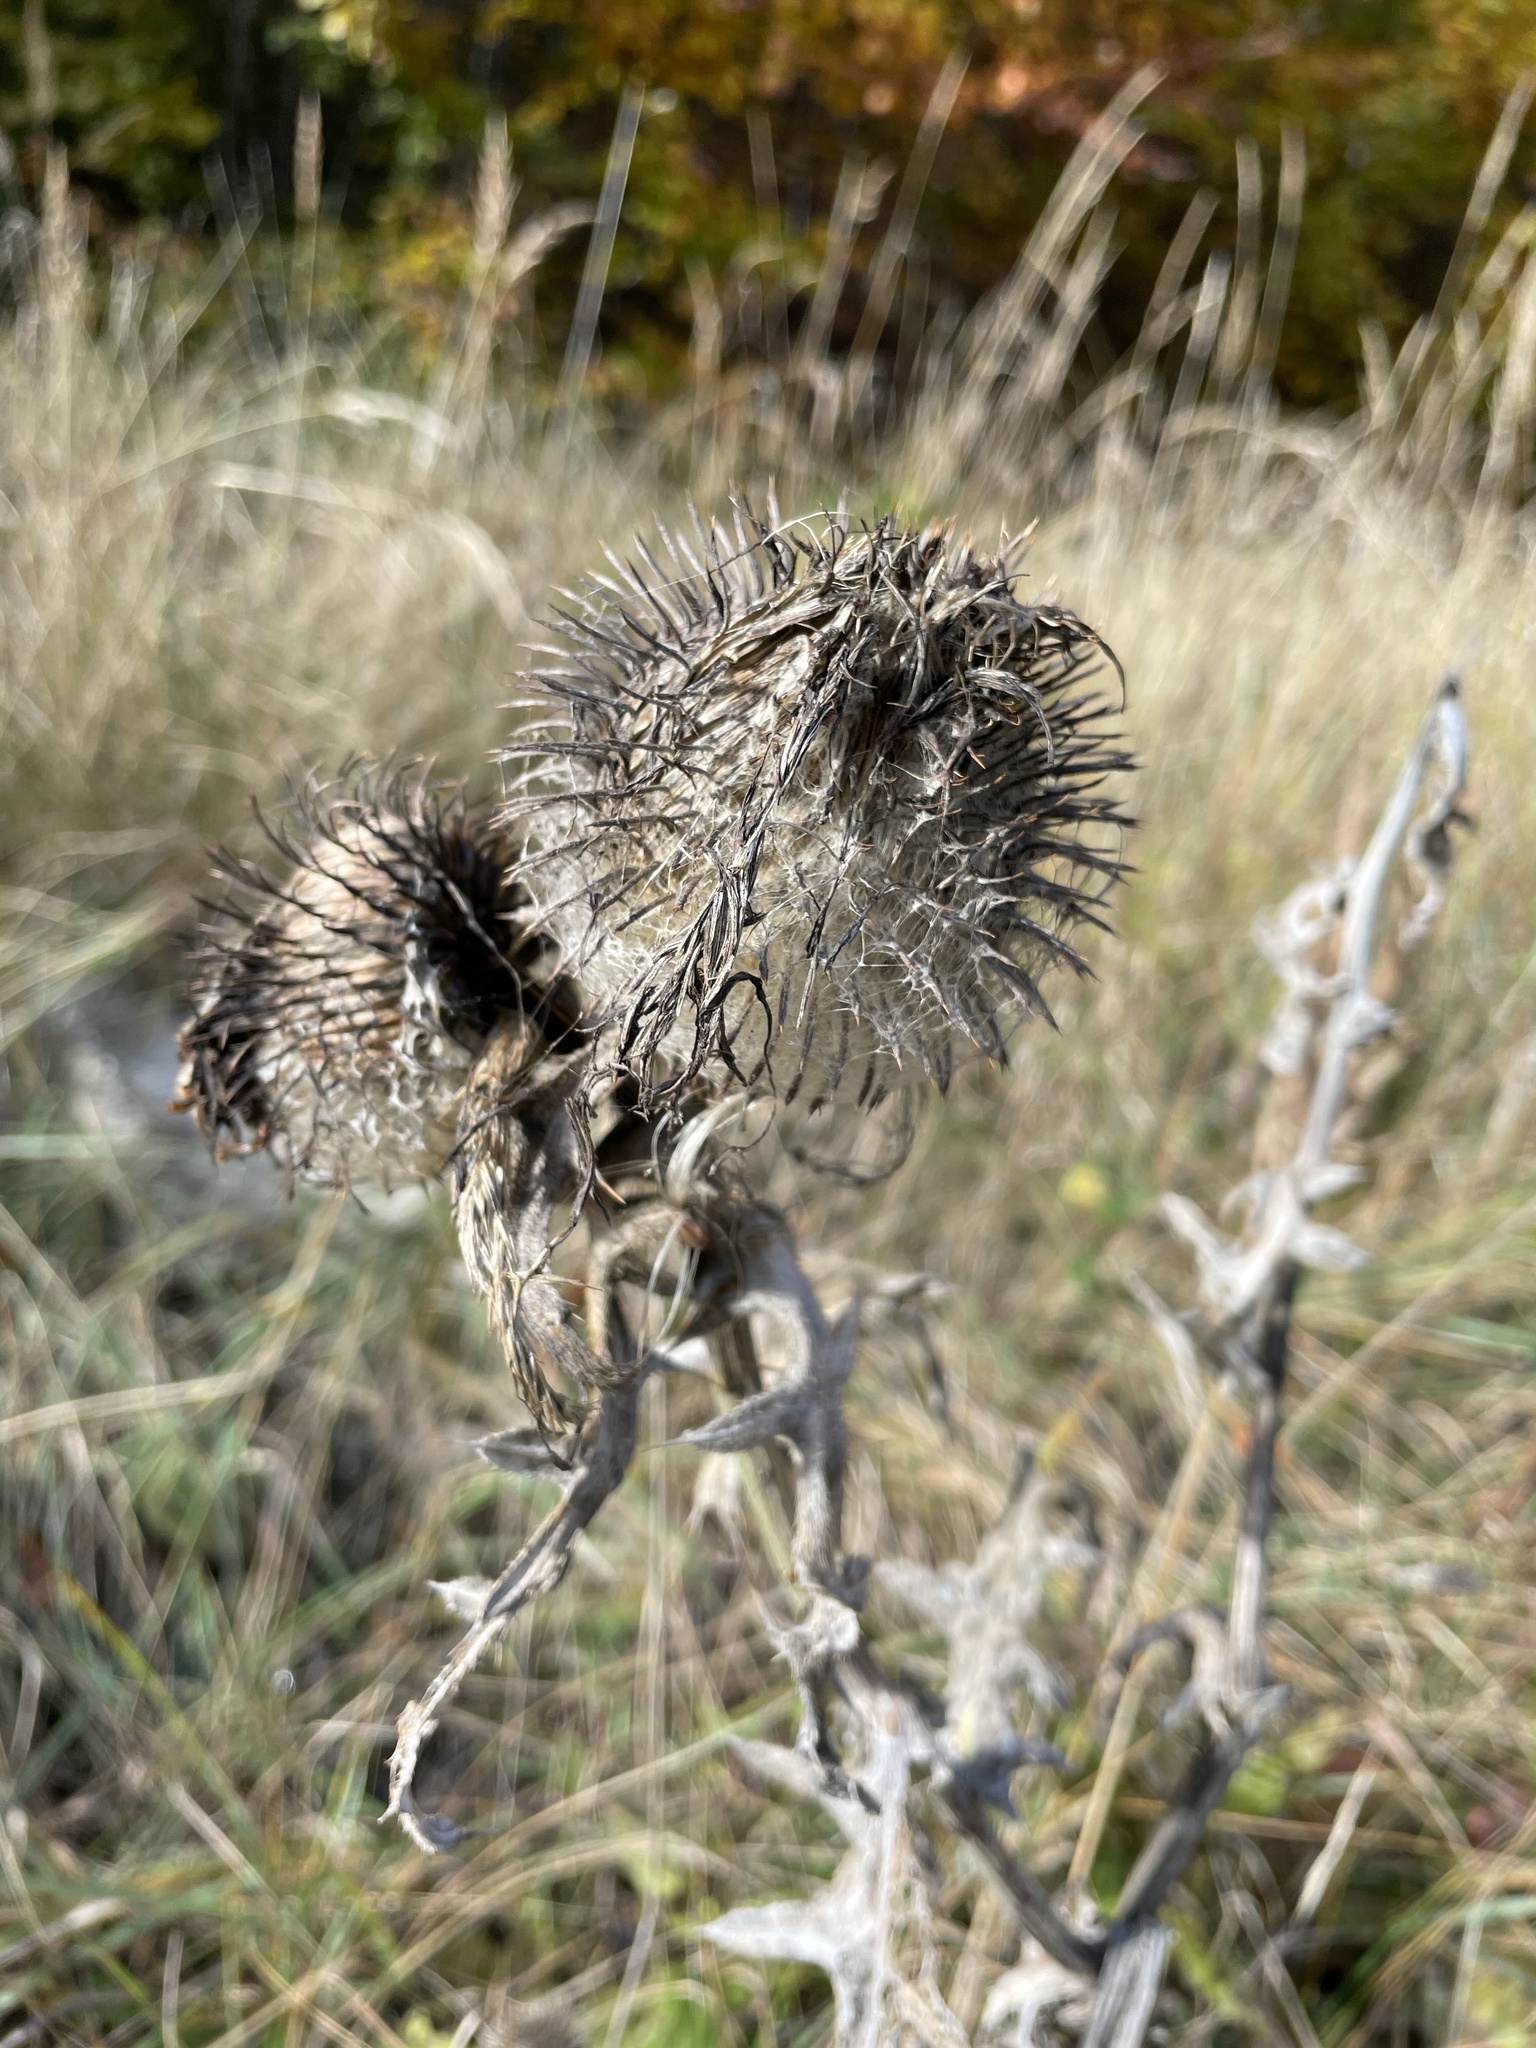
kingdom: Plantae
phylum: Tracheophyta
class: Magnoliopsida
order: Asterales
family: Asteraceae
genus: Lophiolepis
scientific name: Lophiolepis eriophora
